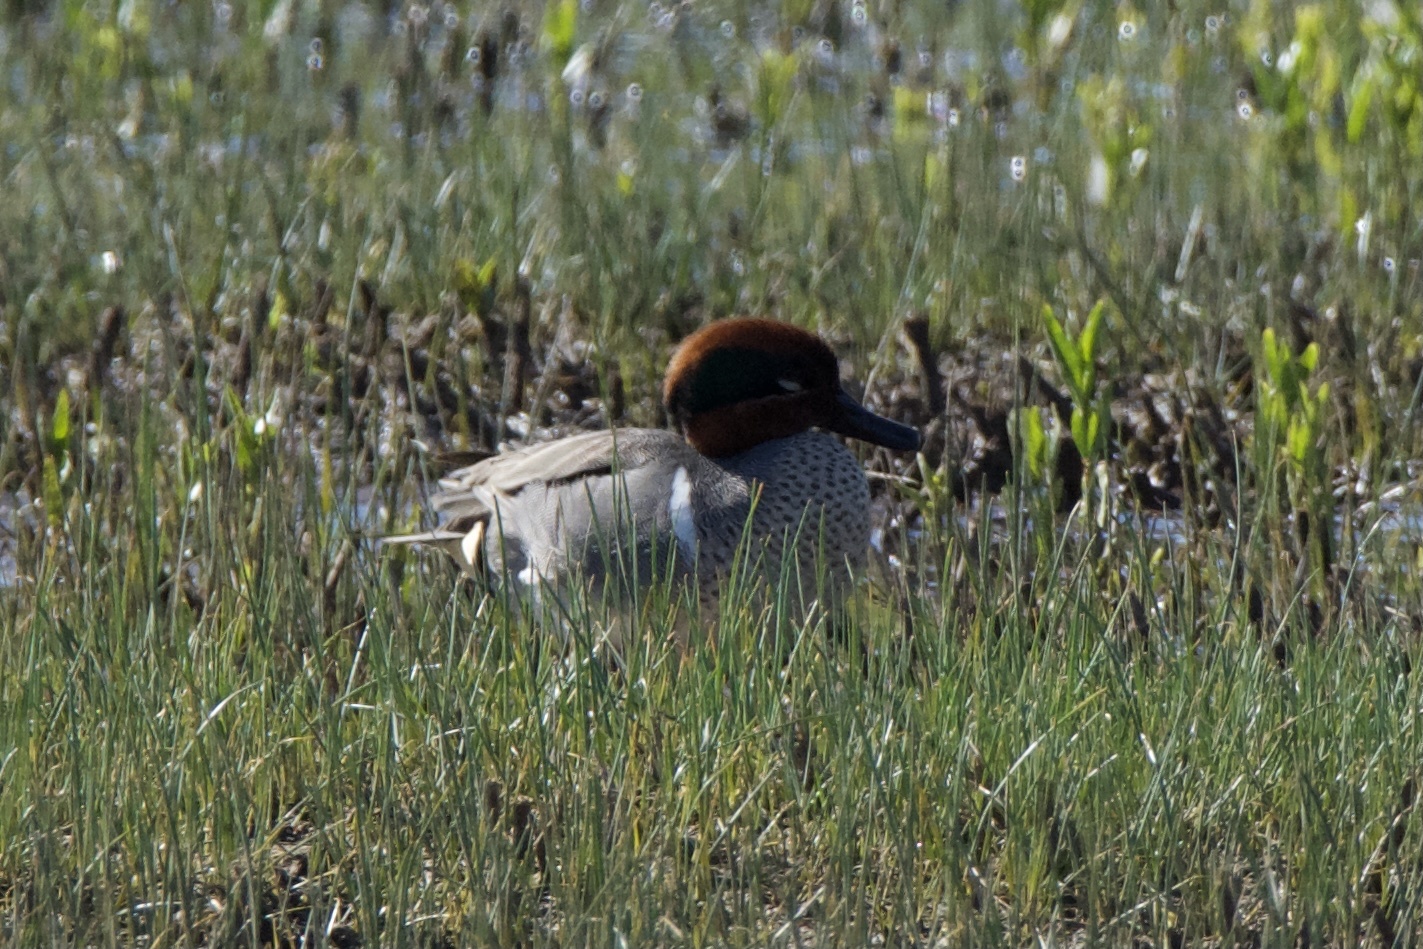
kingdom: Animalia
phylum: Chordata
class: Aves
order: Anseriformes
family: Anatidae
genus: Anas
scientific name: Anas crecca
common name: Eurasian teal
